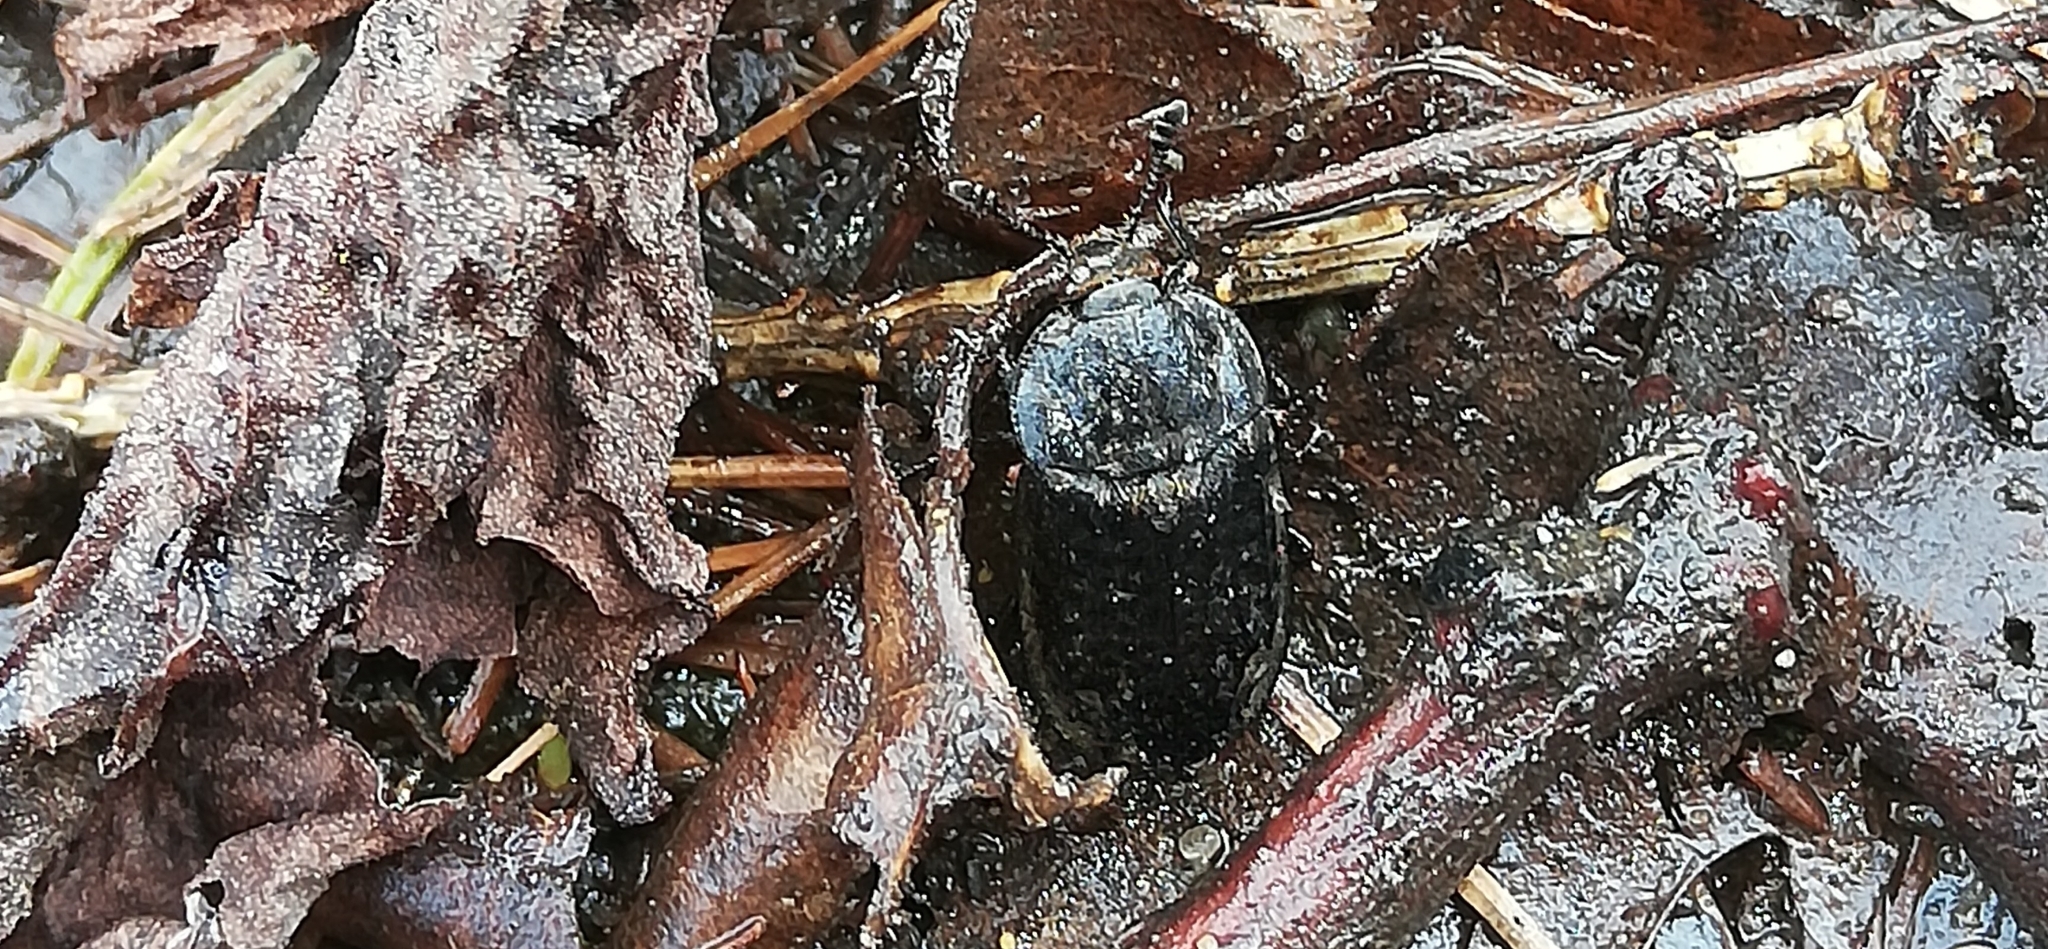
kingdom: Animalia
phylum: Arthropoda
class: Insecta
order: Coleoptera
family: Staphylinidae
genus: Thanatophilus
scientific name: Thanatophilus rugosus
